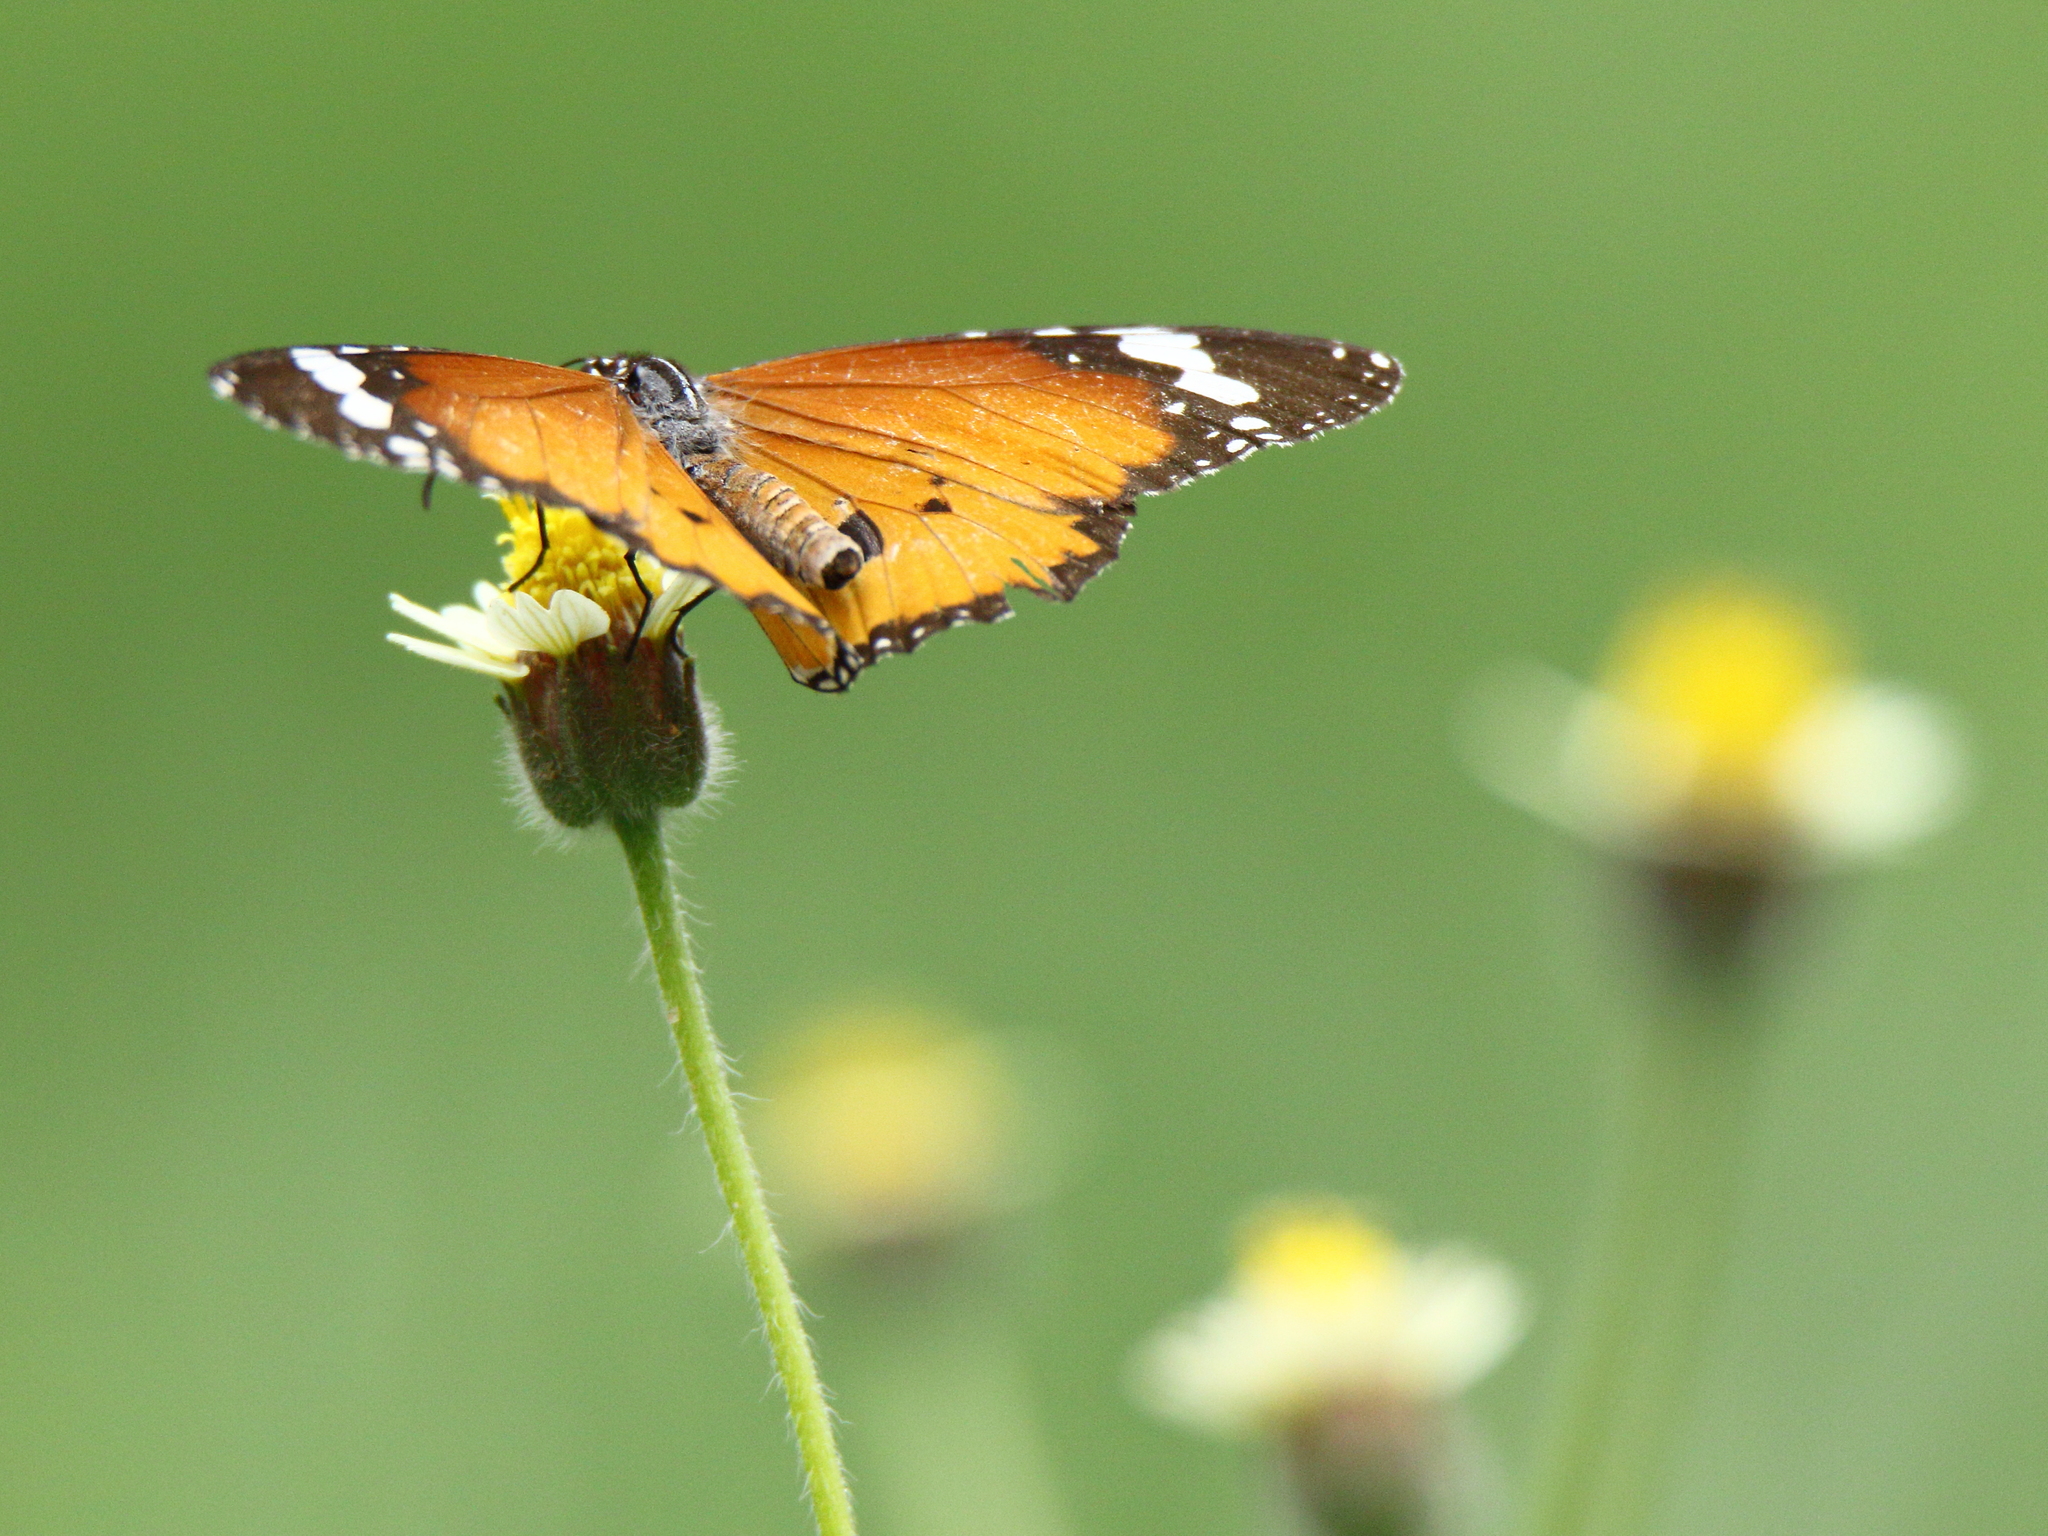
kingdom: Animalia
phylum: Arthropoda
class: Insecta
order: Lepidoptera
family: Nymphalidae
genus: Danaus
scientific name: Danaus chrysippus
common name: Plain tiger
